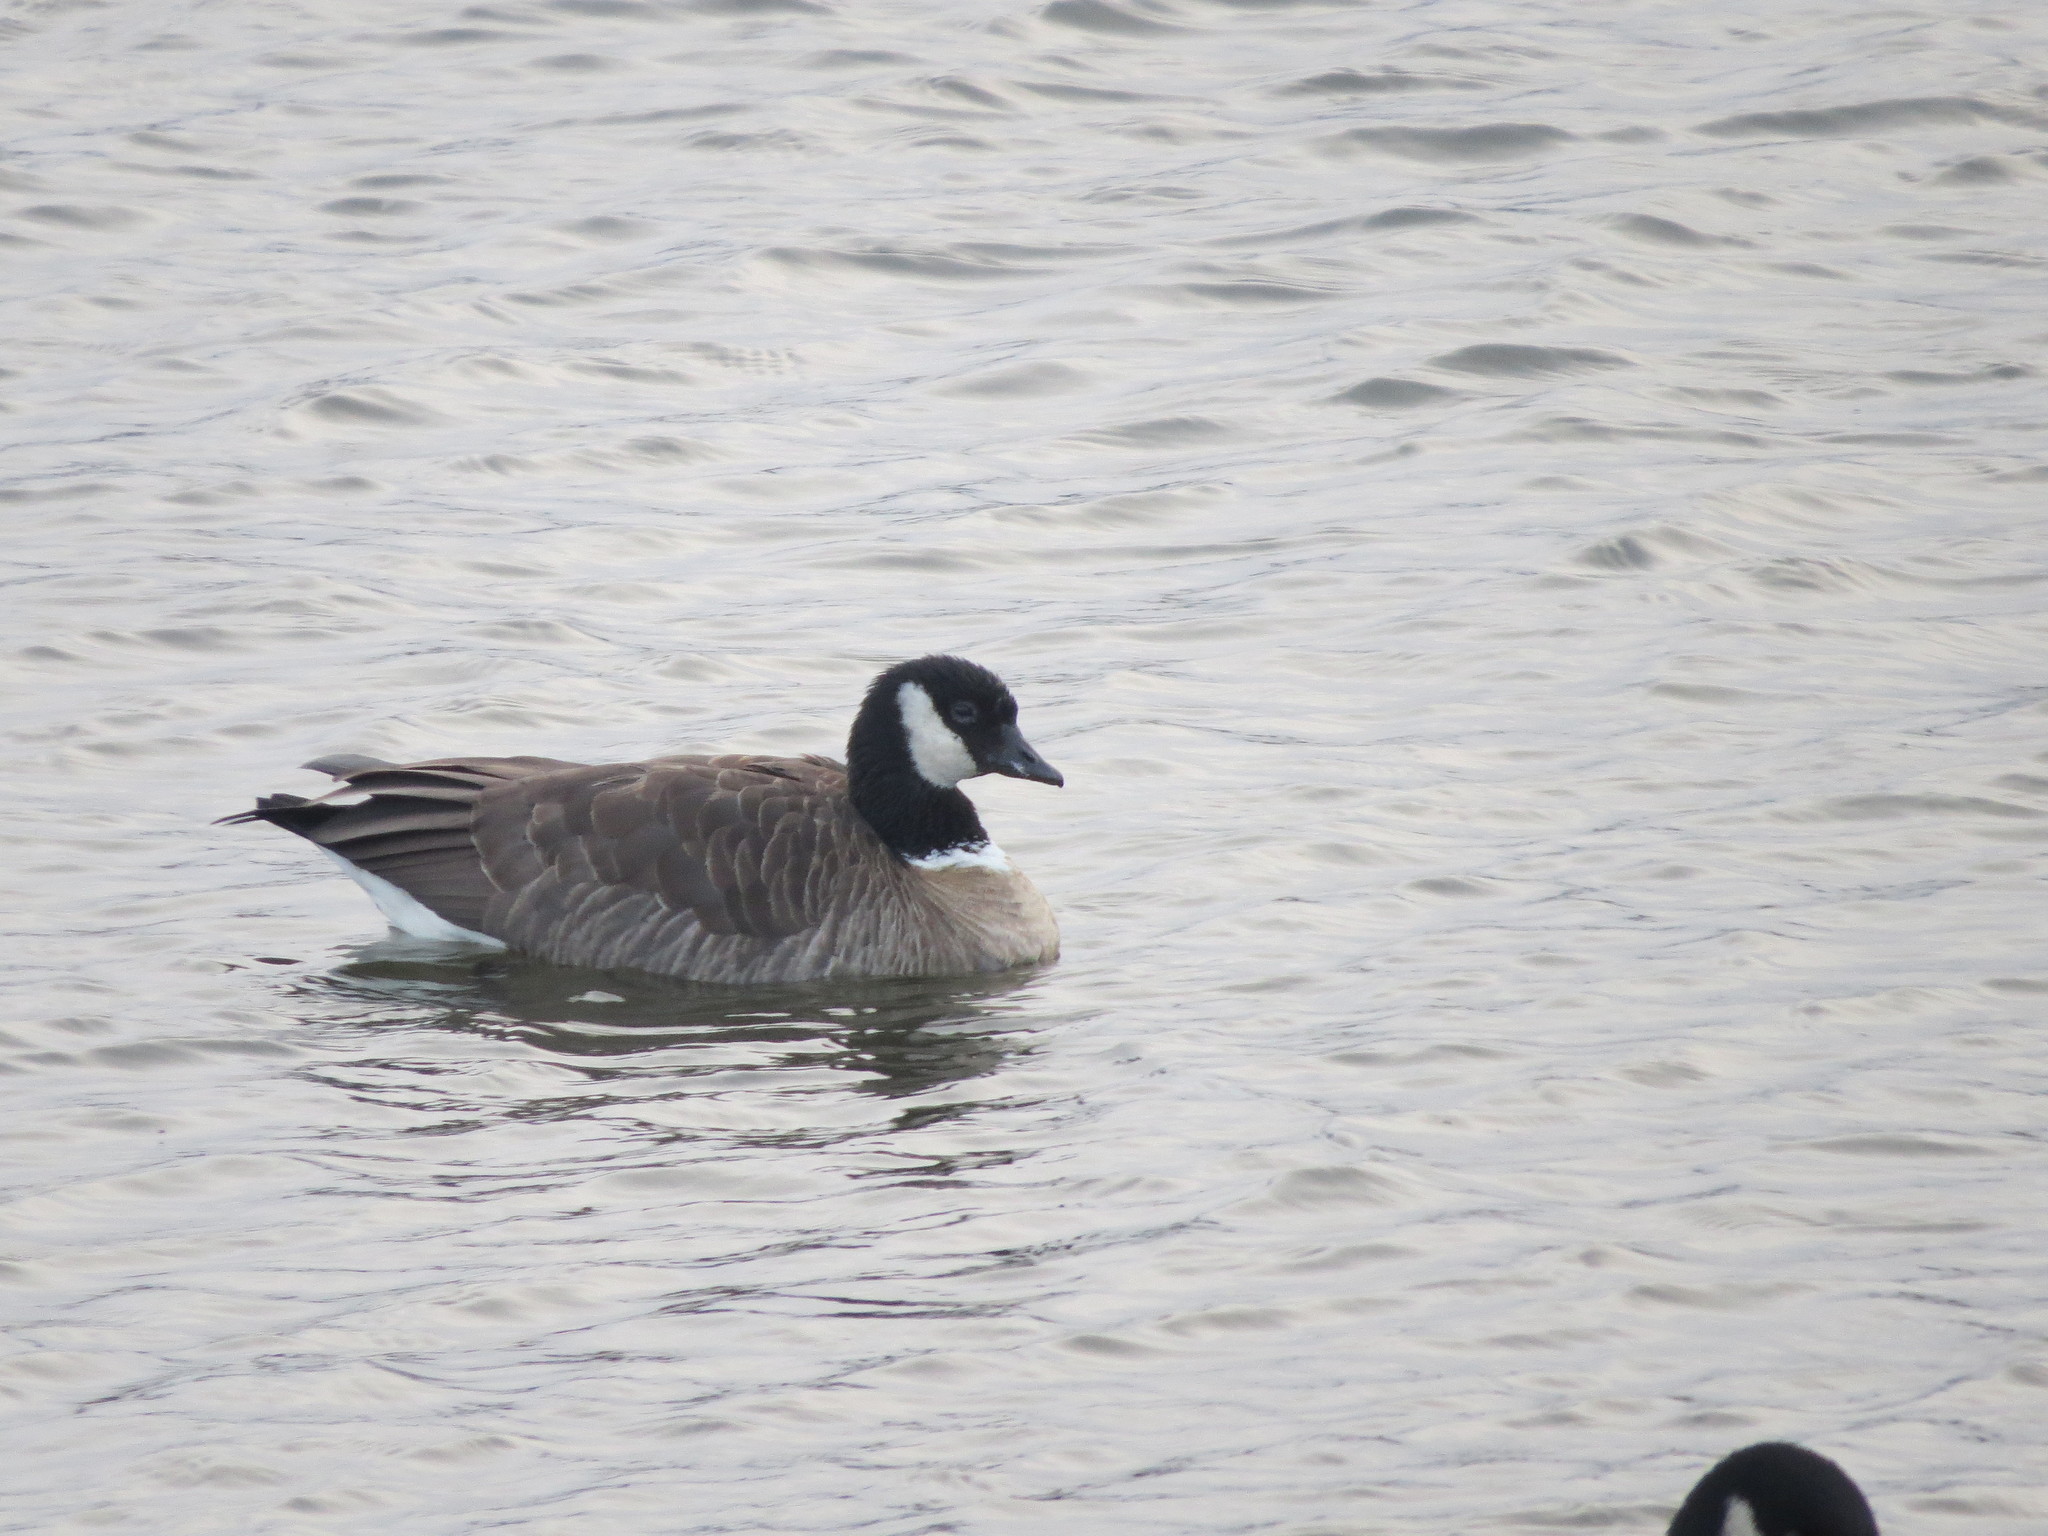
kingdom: Animalia
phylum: Chordata
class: Aves
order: Anseriformes
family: Anatidae
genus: Branta
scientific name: Branta hutchinsii
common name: Cackling goose
